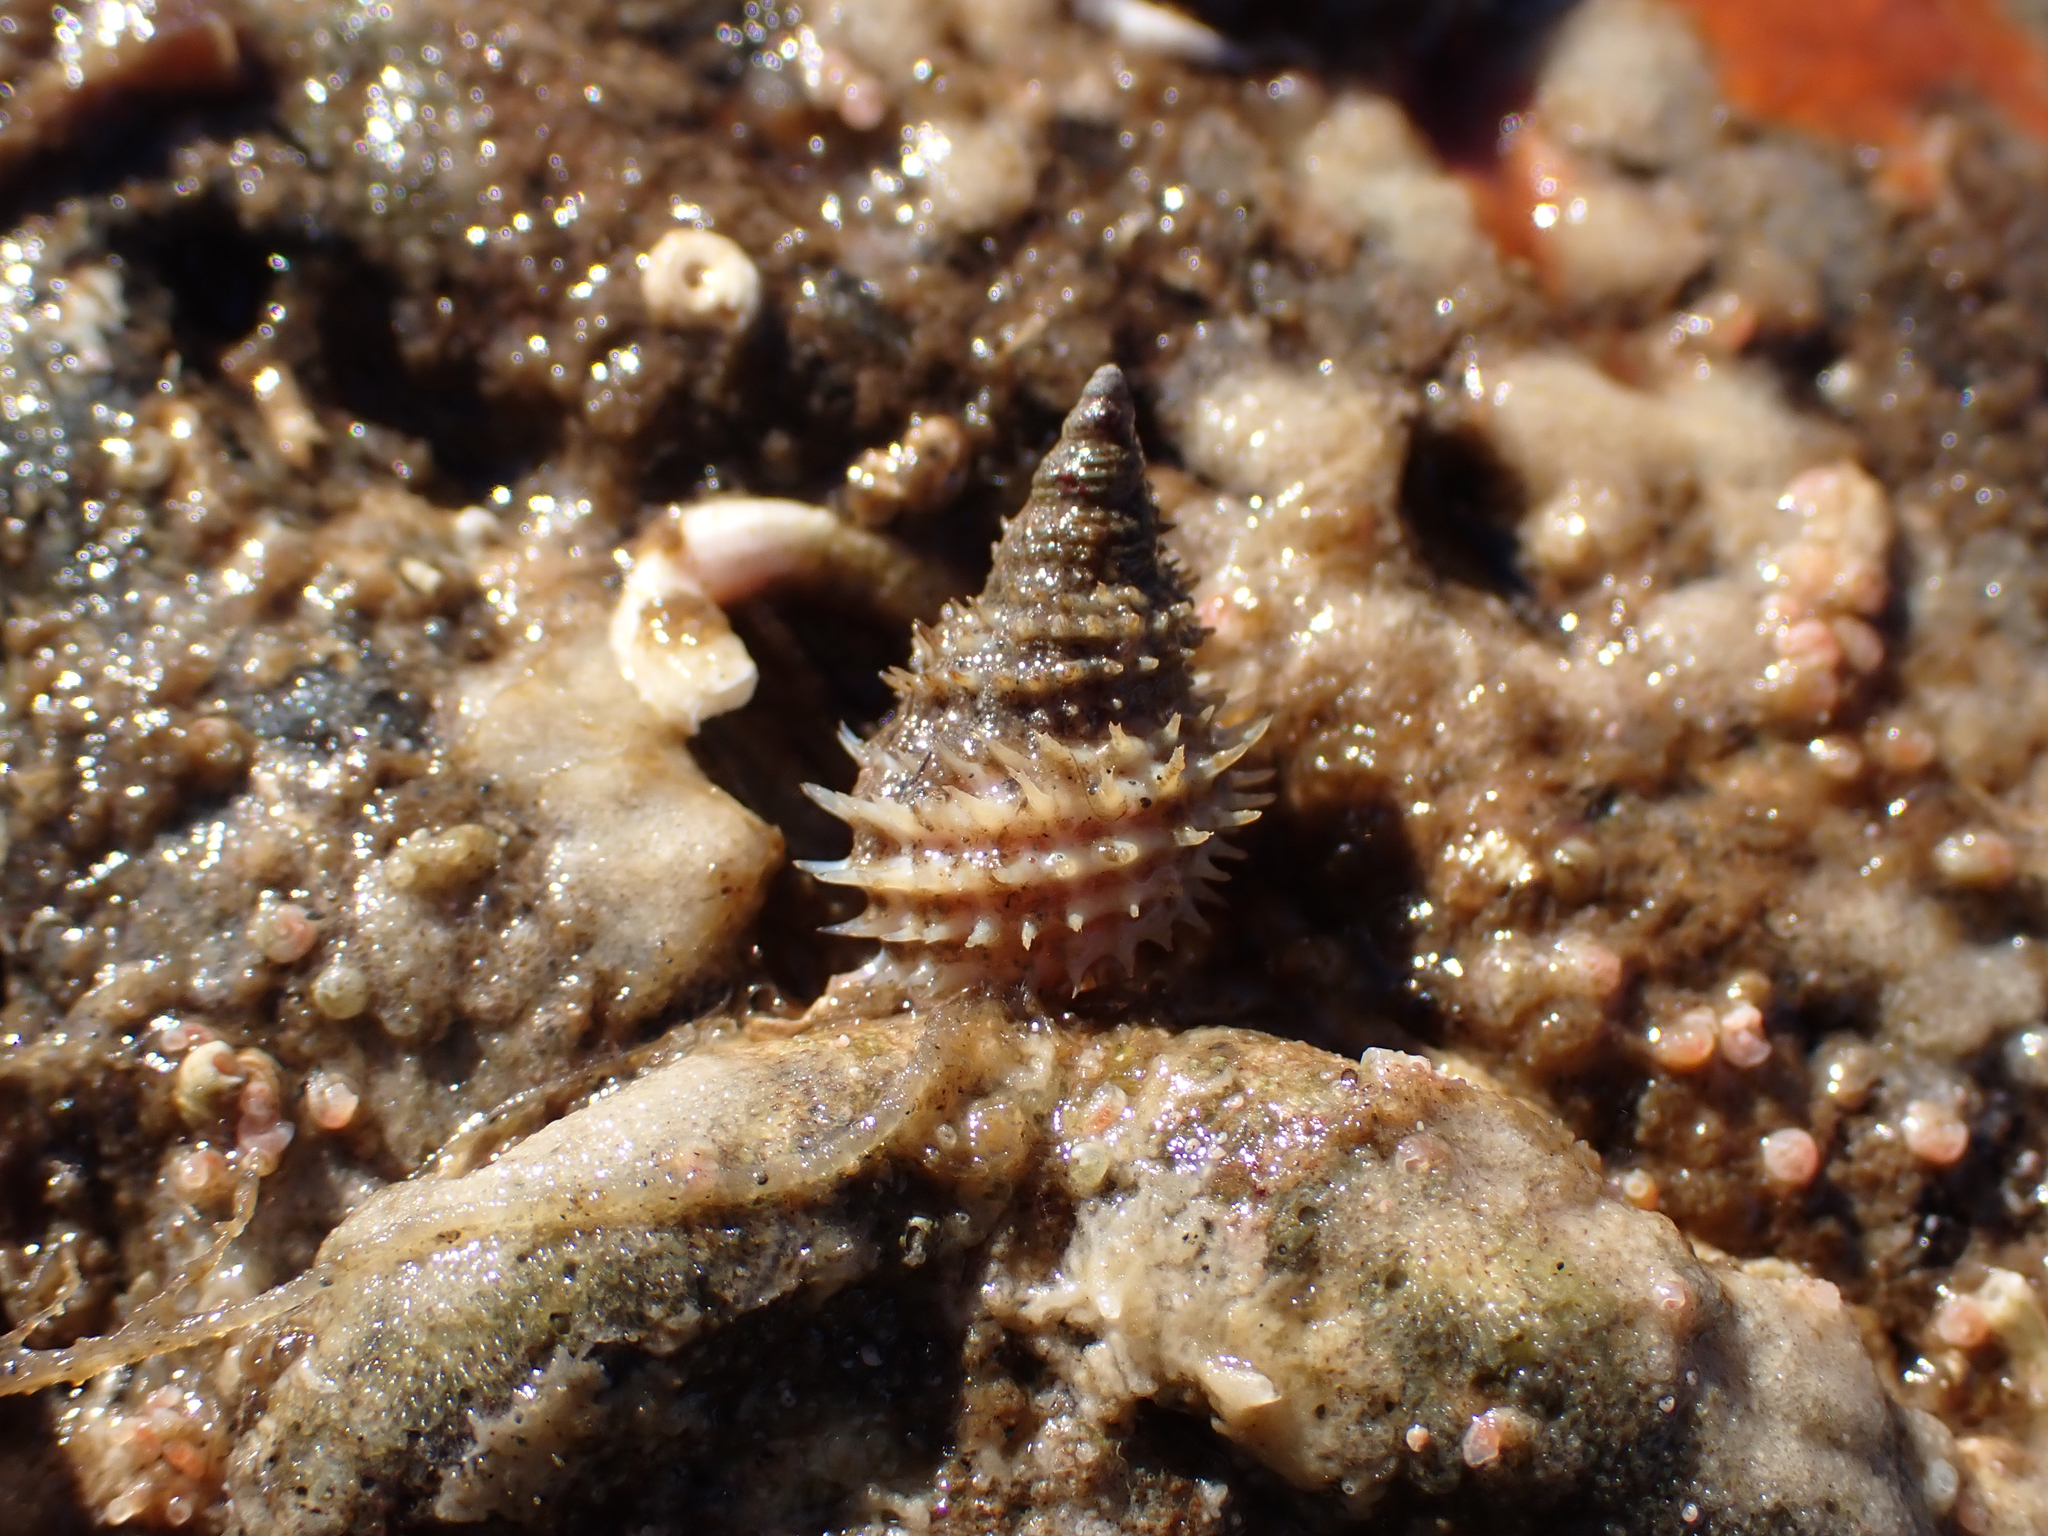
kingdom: Animalia
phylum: Mollusca
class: Gastropoda
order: Littorinimorpha
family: Capulidae
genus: Trichotropis
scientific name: Trichotropis cancellata
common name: Cancellate hairysnail
